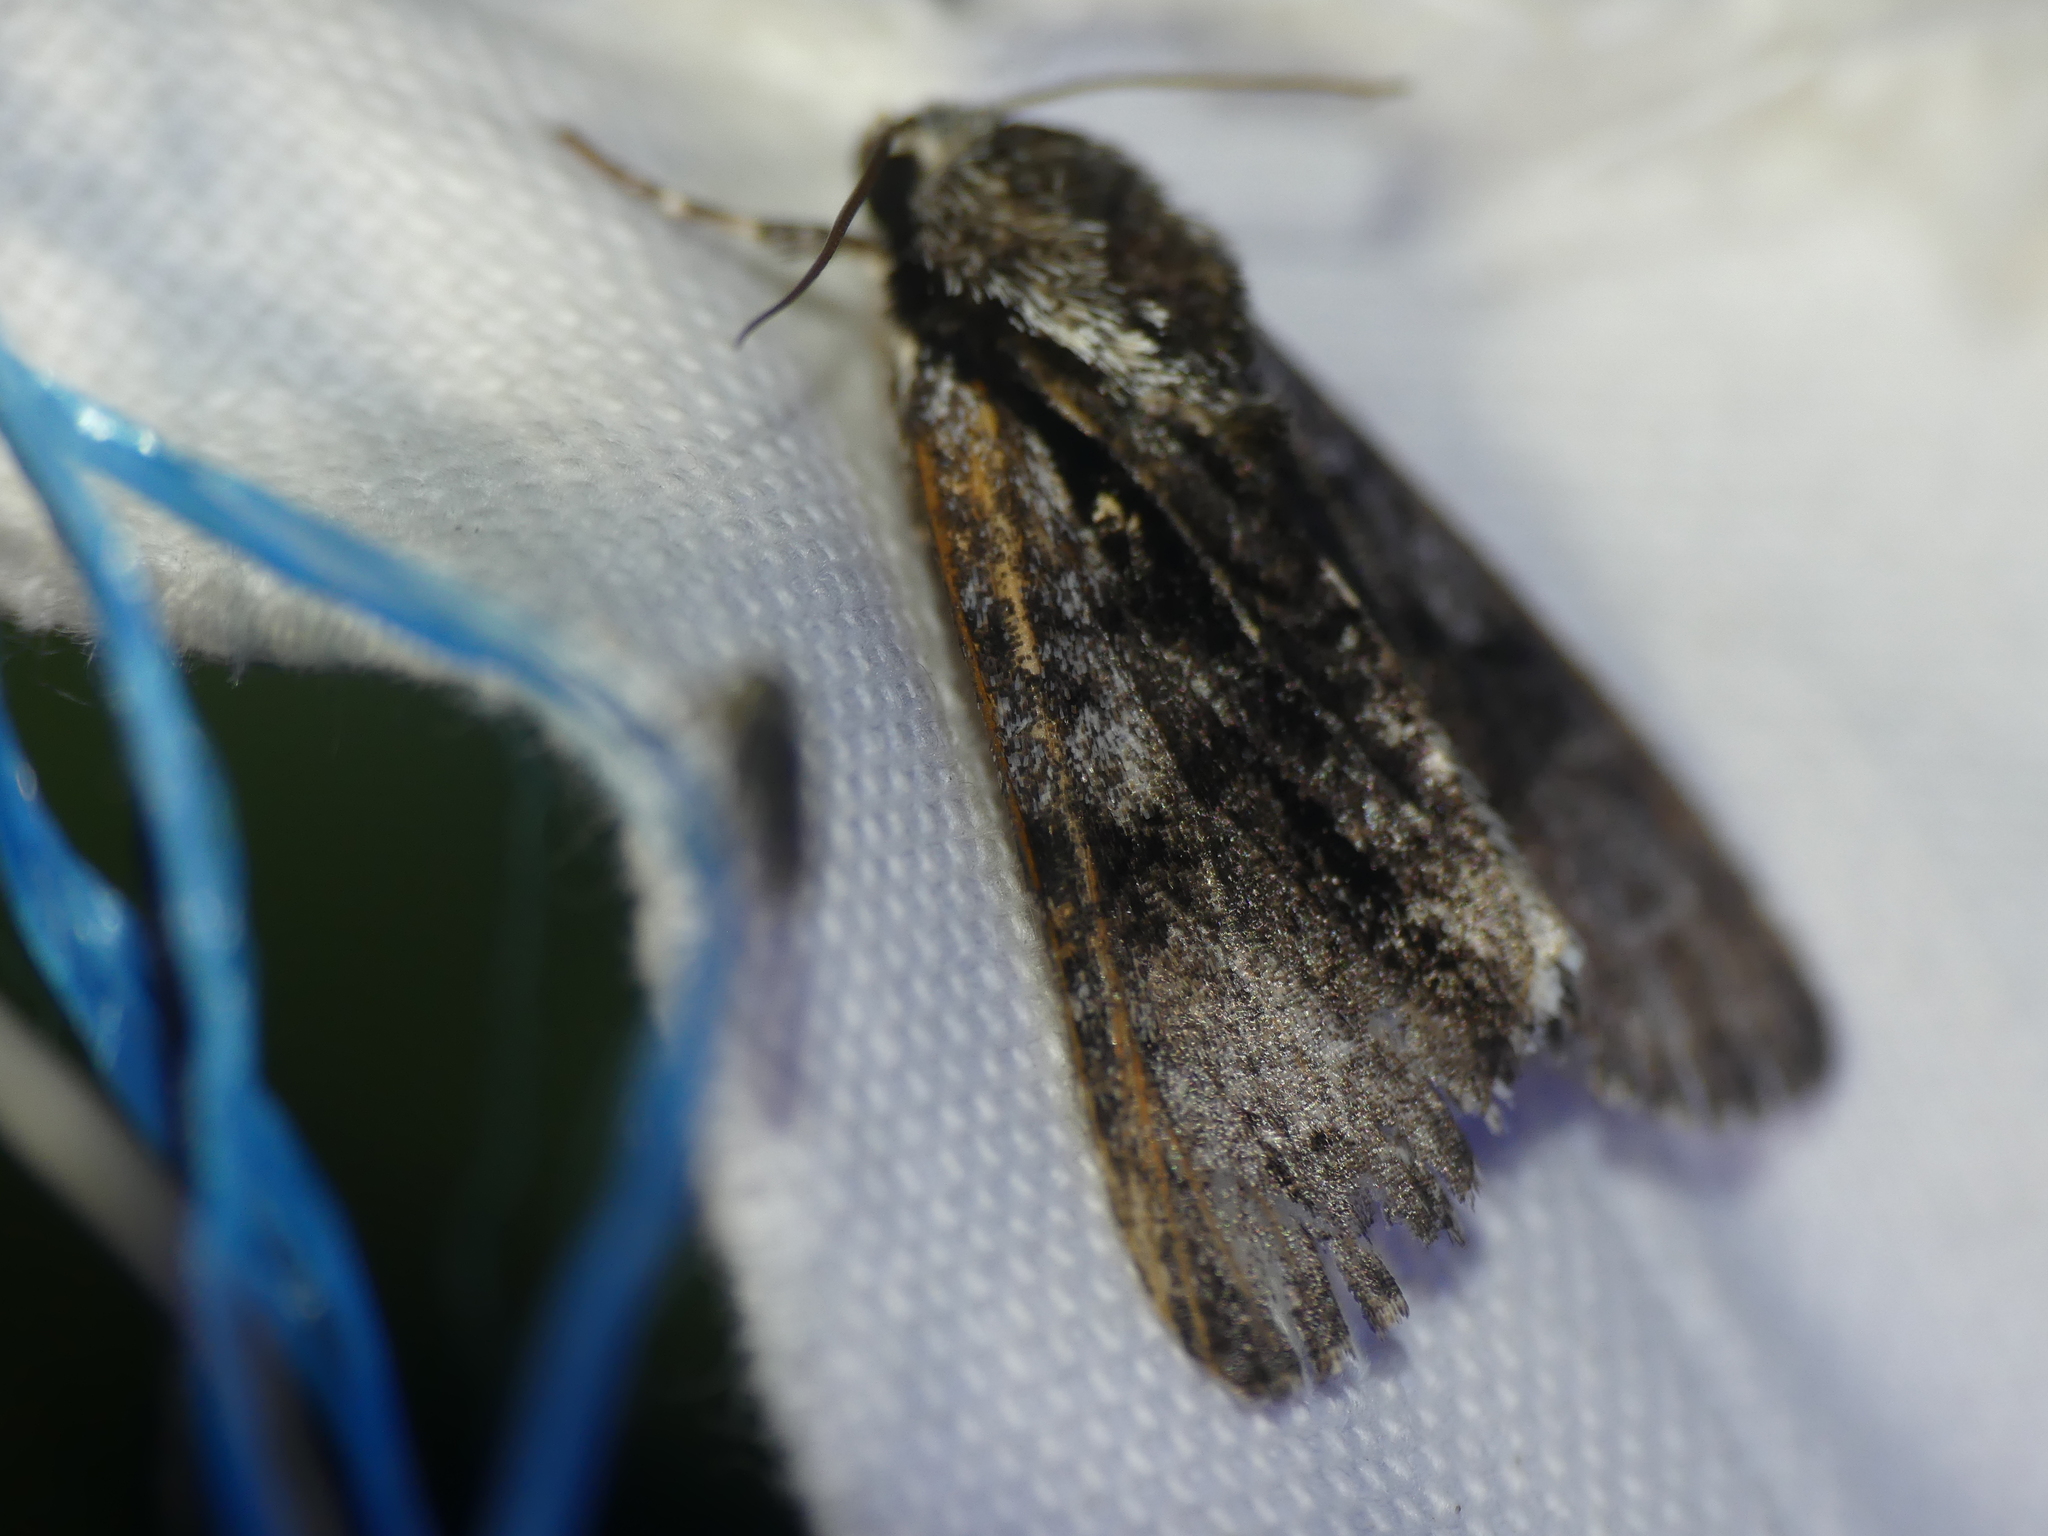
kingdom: Animalia
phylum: Arthropoda
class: Insecta
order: Lepidoptera
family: Noctuidae
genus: Acronicta
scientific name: Acronicta alni
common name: Alder moth
